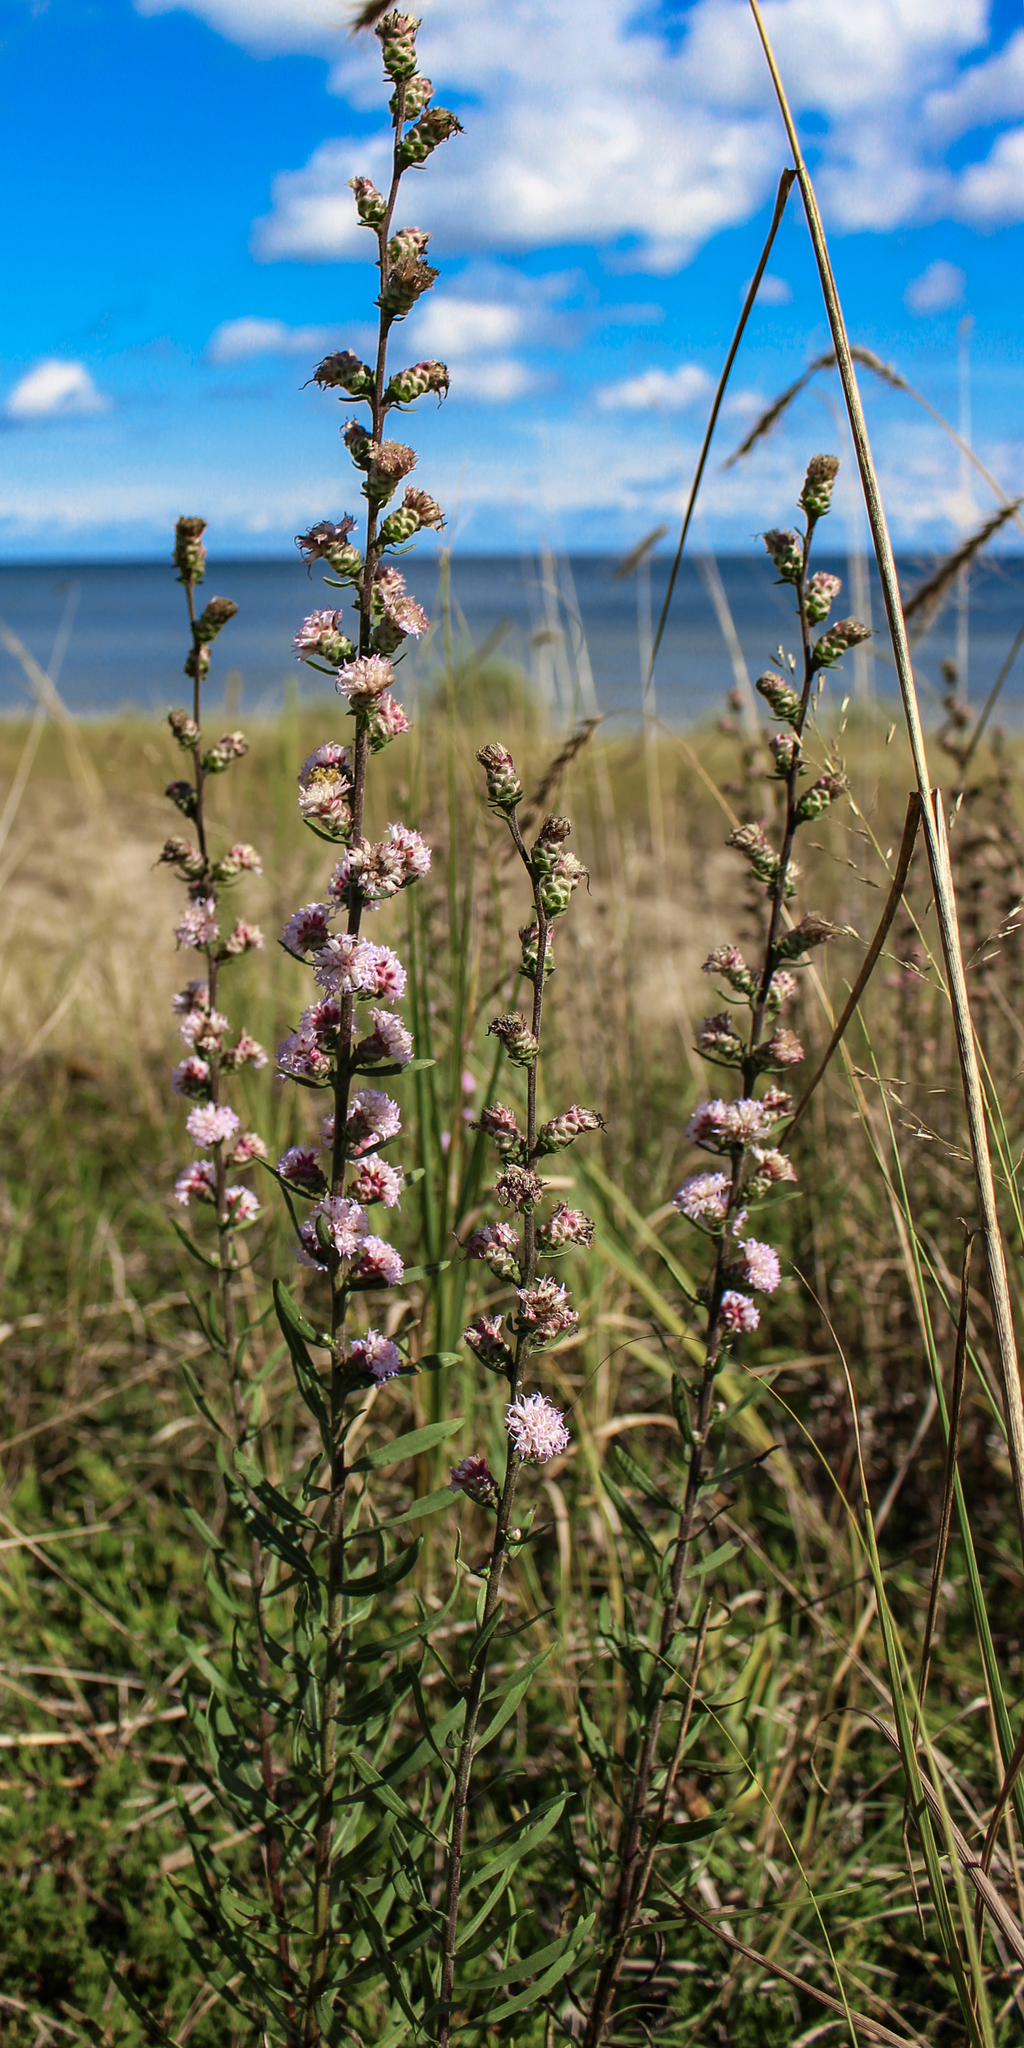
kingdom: Plantae
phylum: Tracheophyta
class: Magnoliopsida
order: Asterales
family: Asteraceae
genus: Liatris
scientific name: Liatris aspera
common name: Lacerate blazing-star
